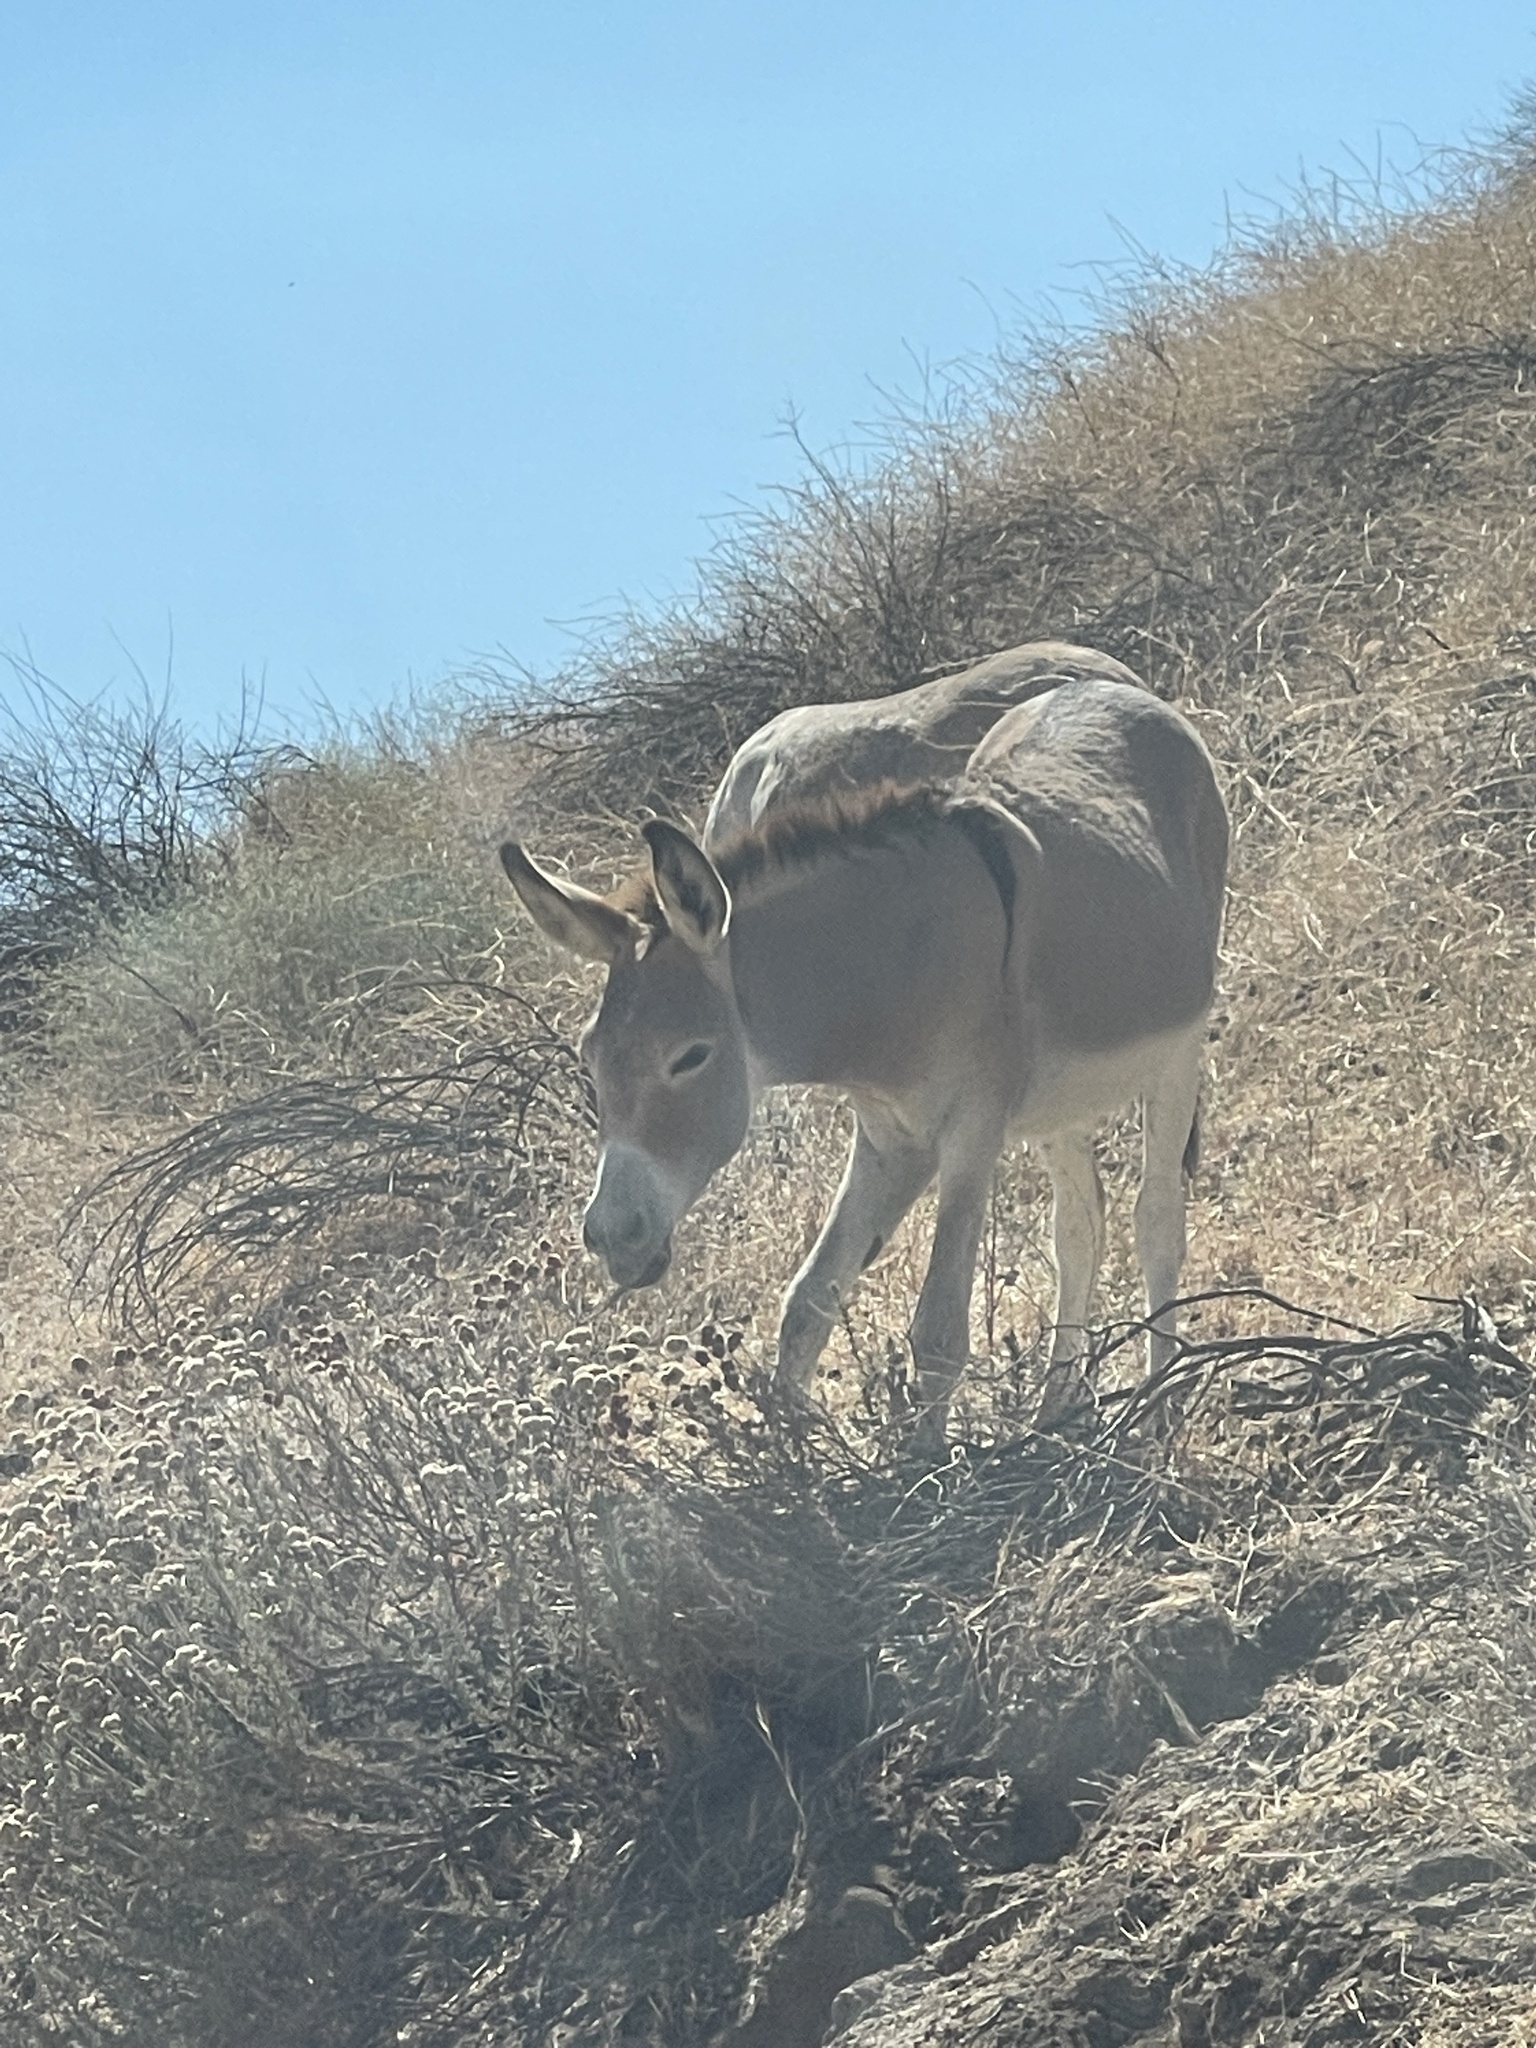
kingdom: Animalia
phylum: Chordata
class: Mammalia
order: Perissodactyla
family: Equidae
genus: Equus
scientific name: Equus asinus
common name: Ass
